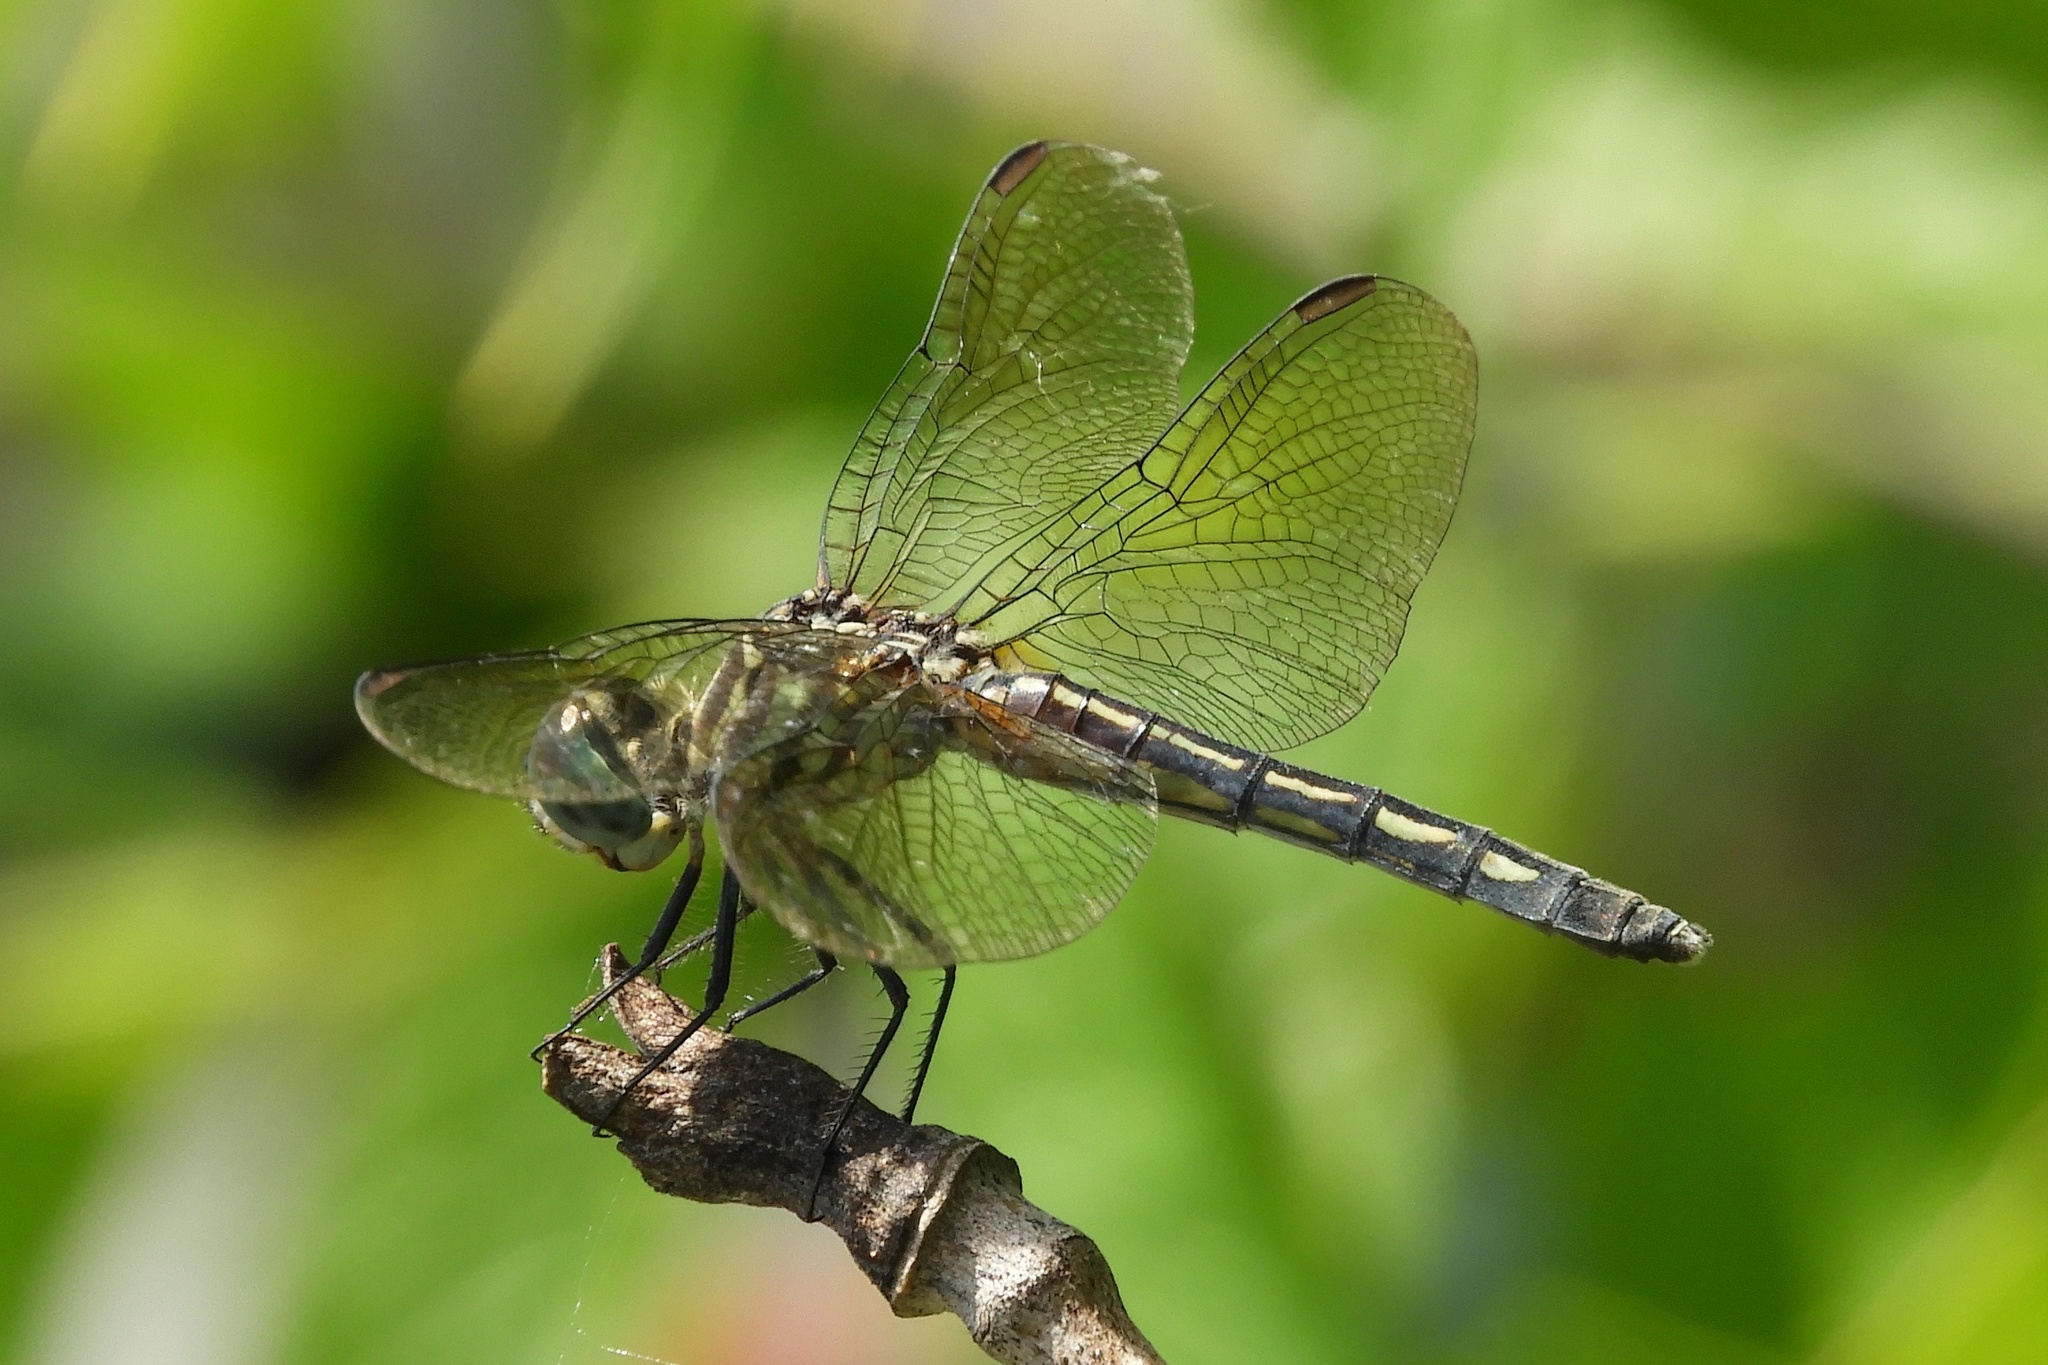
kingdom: Animalia
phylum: Arthropoda
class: Insecta
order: Odonata
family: Libellulidae
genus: Pachydiplax
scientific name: Pachydiplax longipennis
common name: Blue dasher
